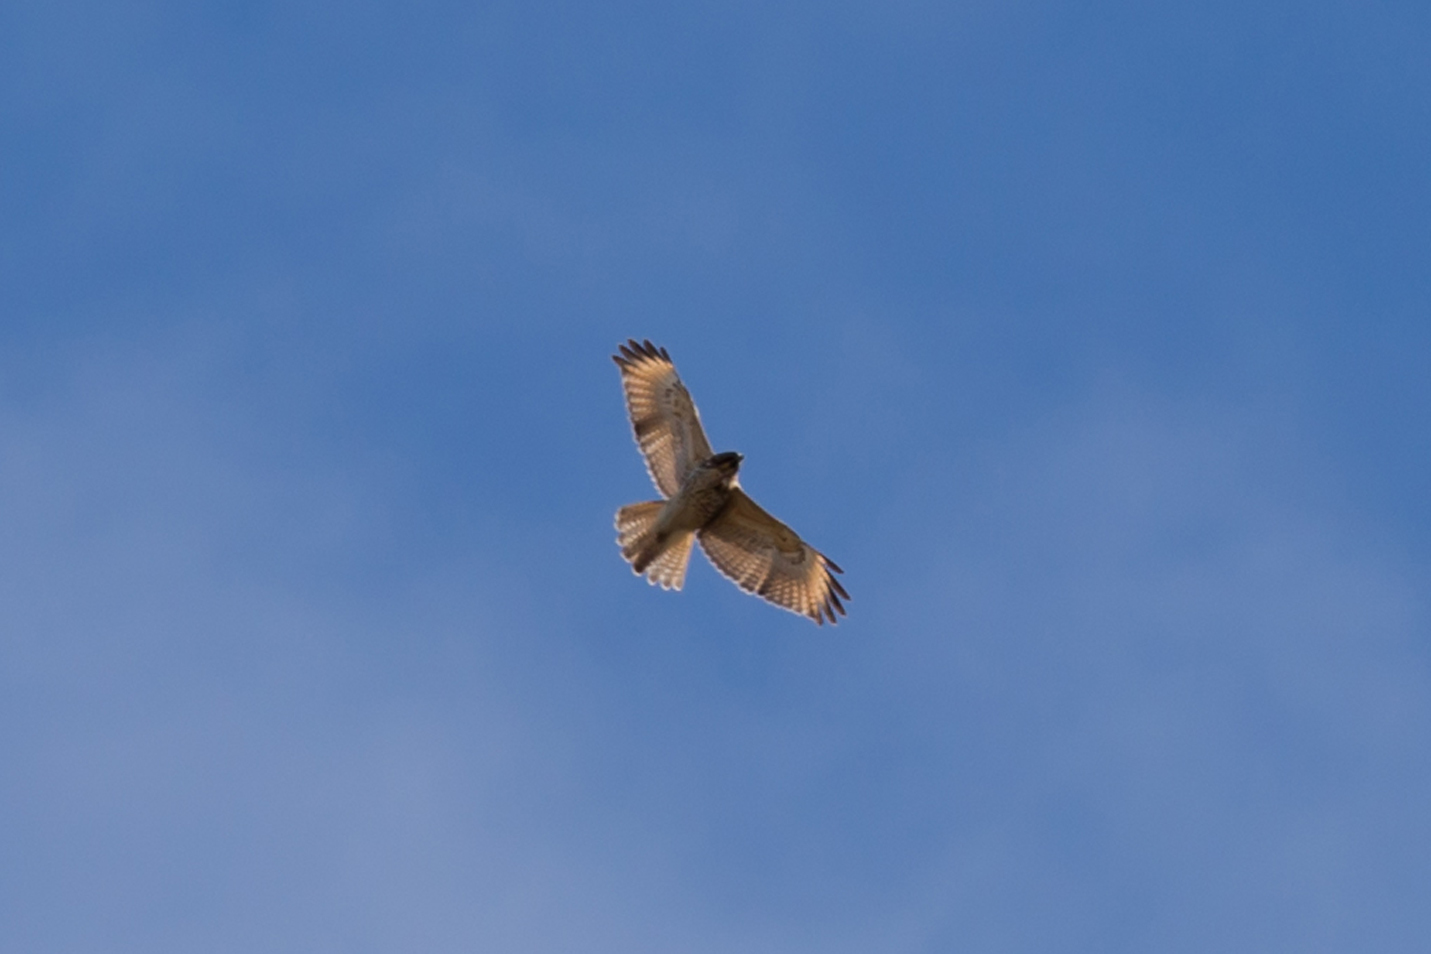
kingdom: Animalia
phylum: Chordata
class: Aves
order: Accipitriformes
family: Accipitridae
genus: Buteo
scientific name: Buteo lineatus
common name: Red-shouldered hawk
